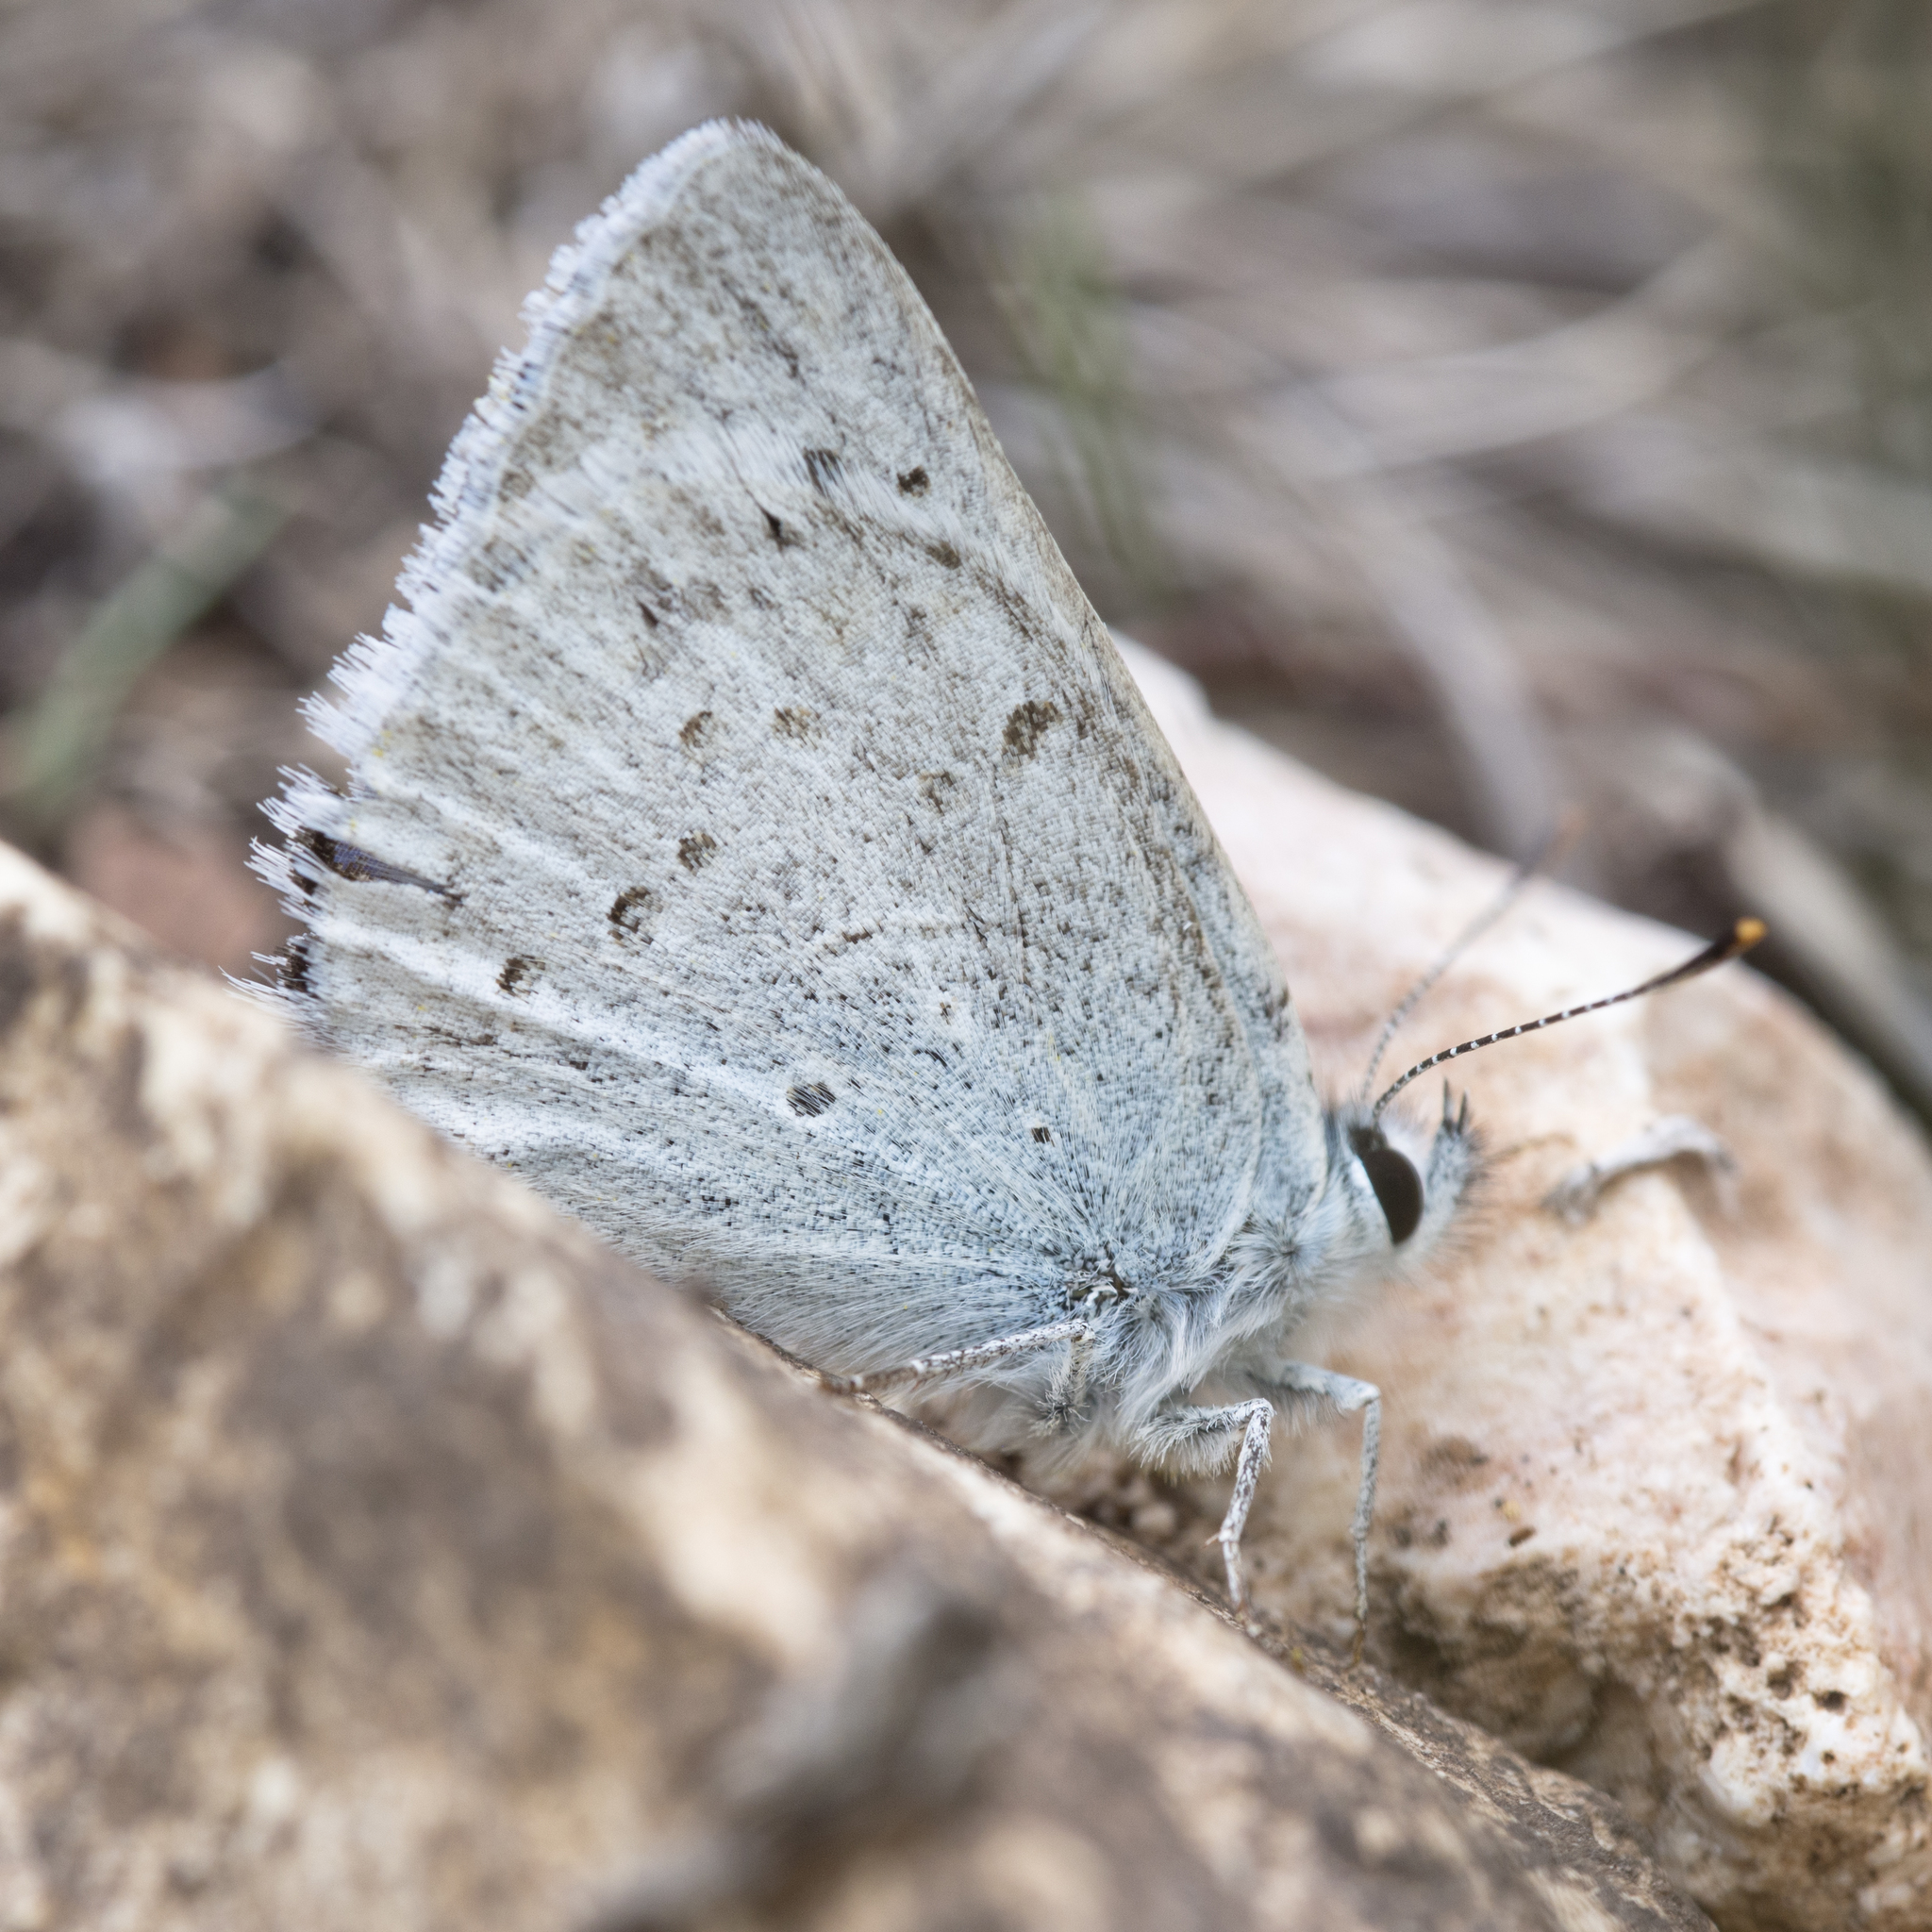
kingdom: Animalia
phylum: Arthropoda
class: Insecta
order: Lepidoptera
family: Lycaenidae
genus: Tharsalea
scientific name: Tharsalea heteronea
